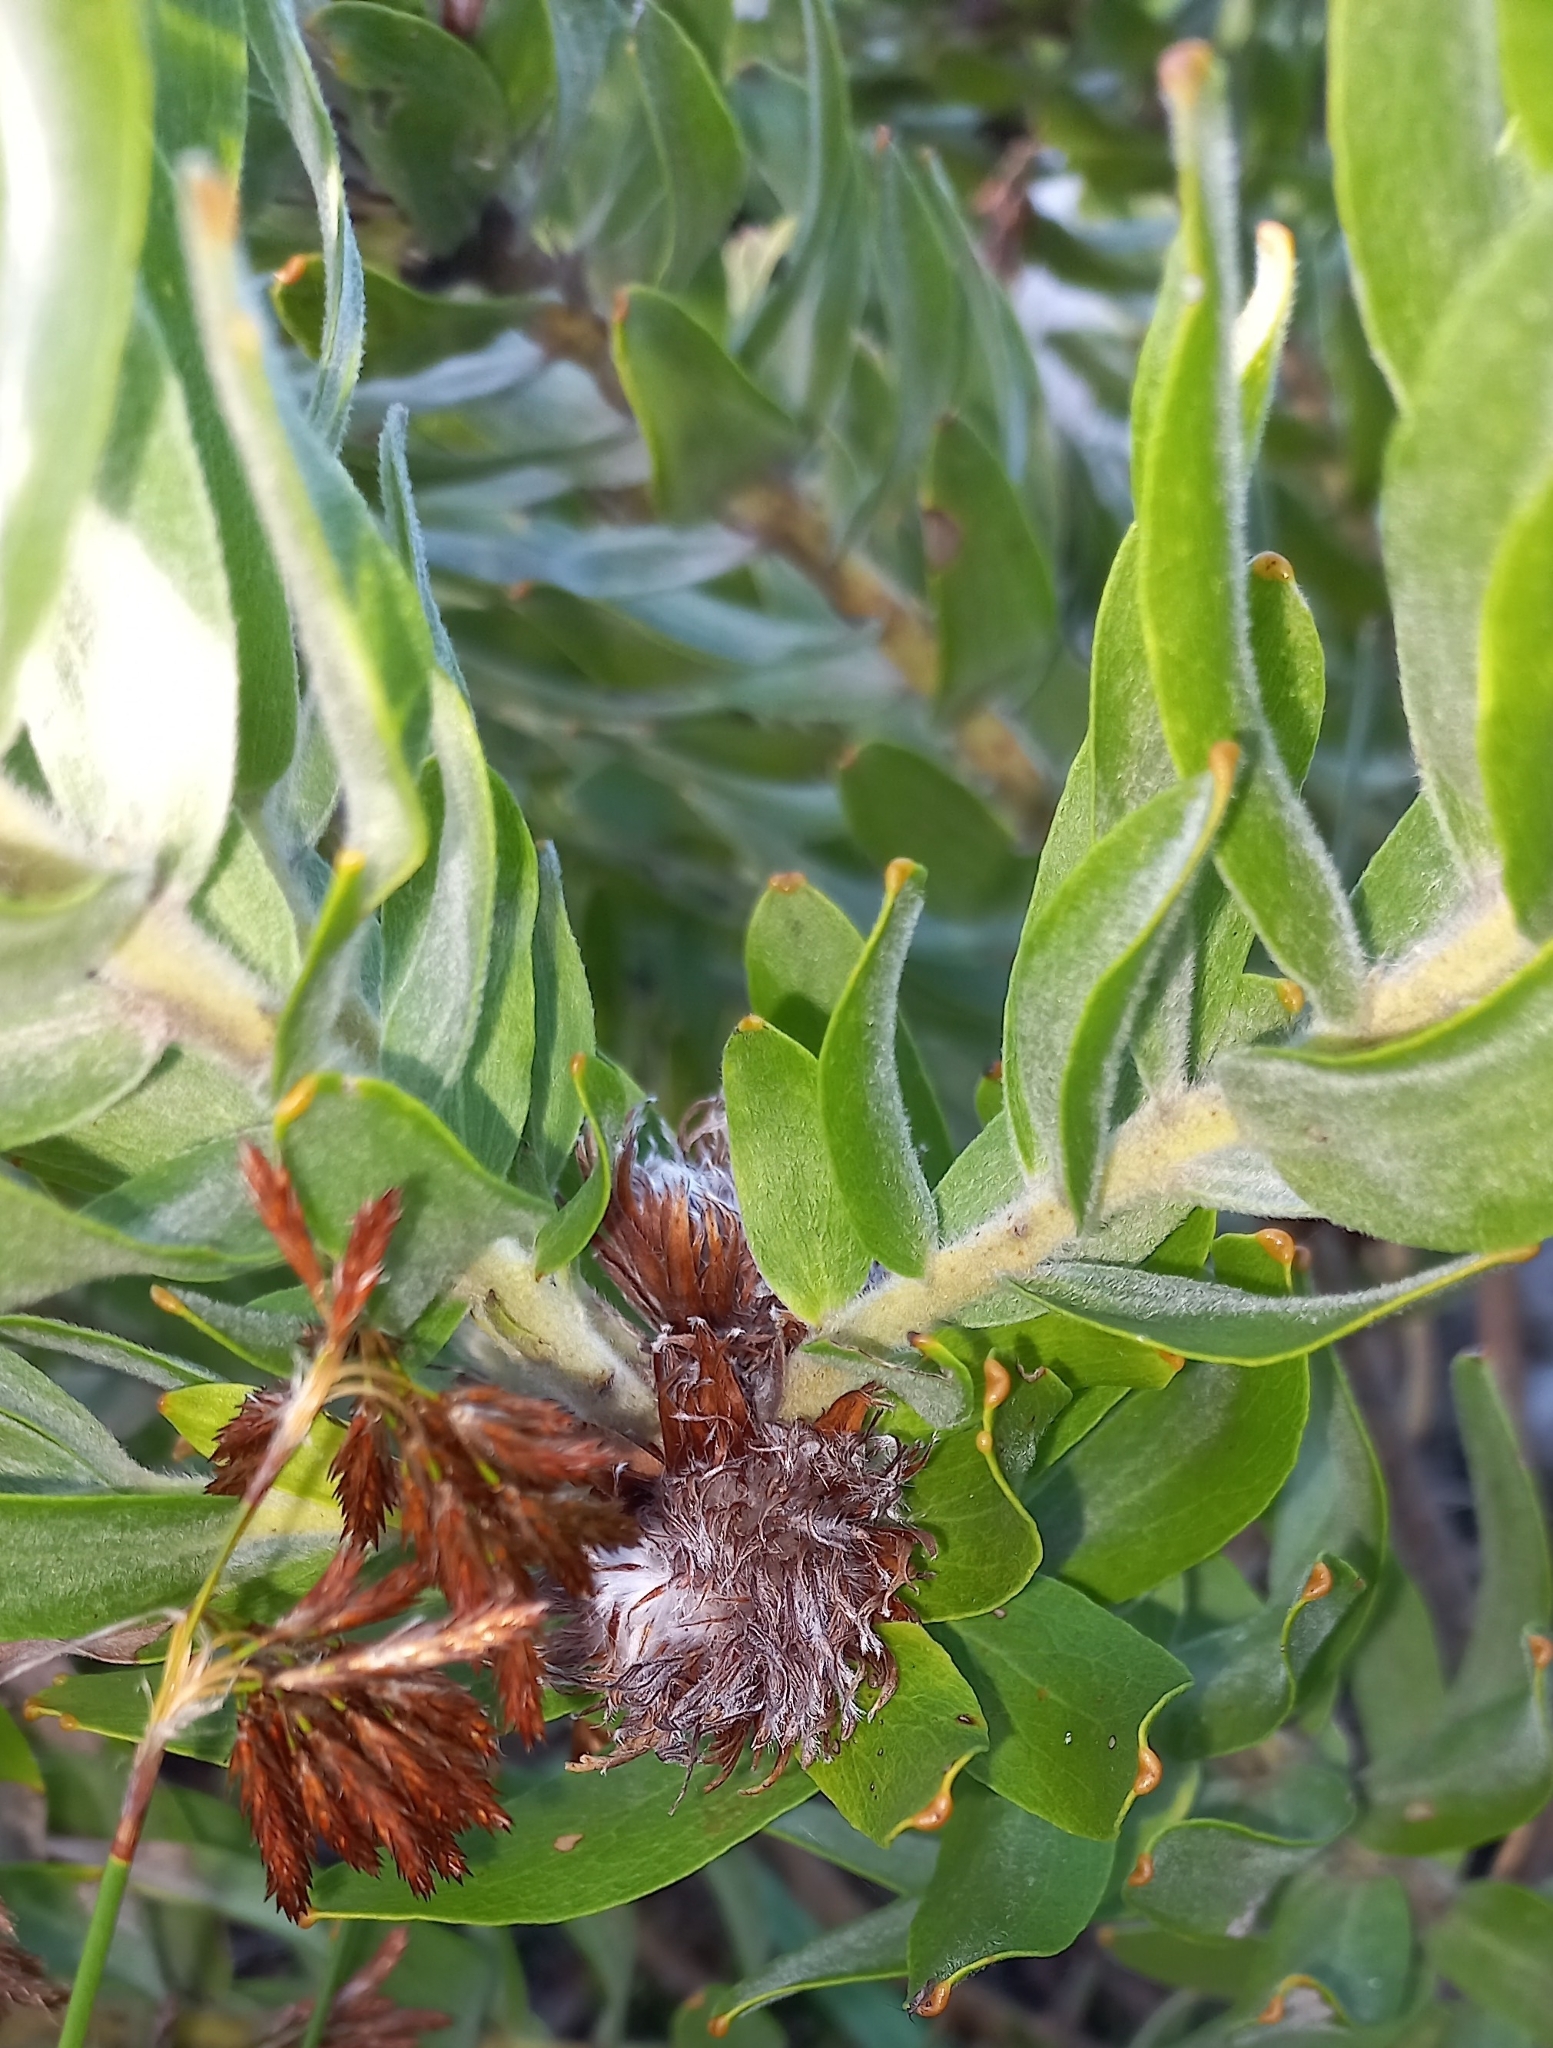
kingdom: Plantae
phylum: Tracheophyta
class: Magnoliopsida
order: Proteales
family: Proteaceae
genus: Leucospermum
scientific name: Leucospermum oleifolium
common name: Matches
